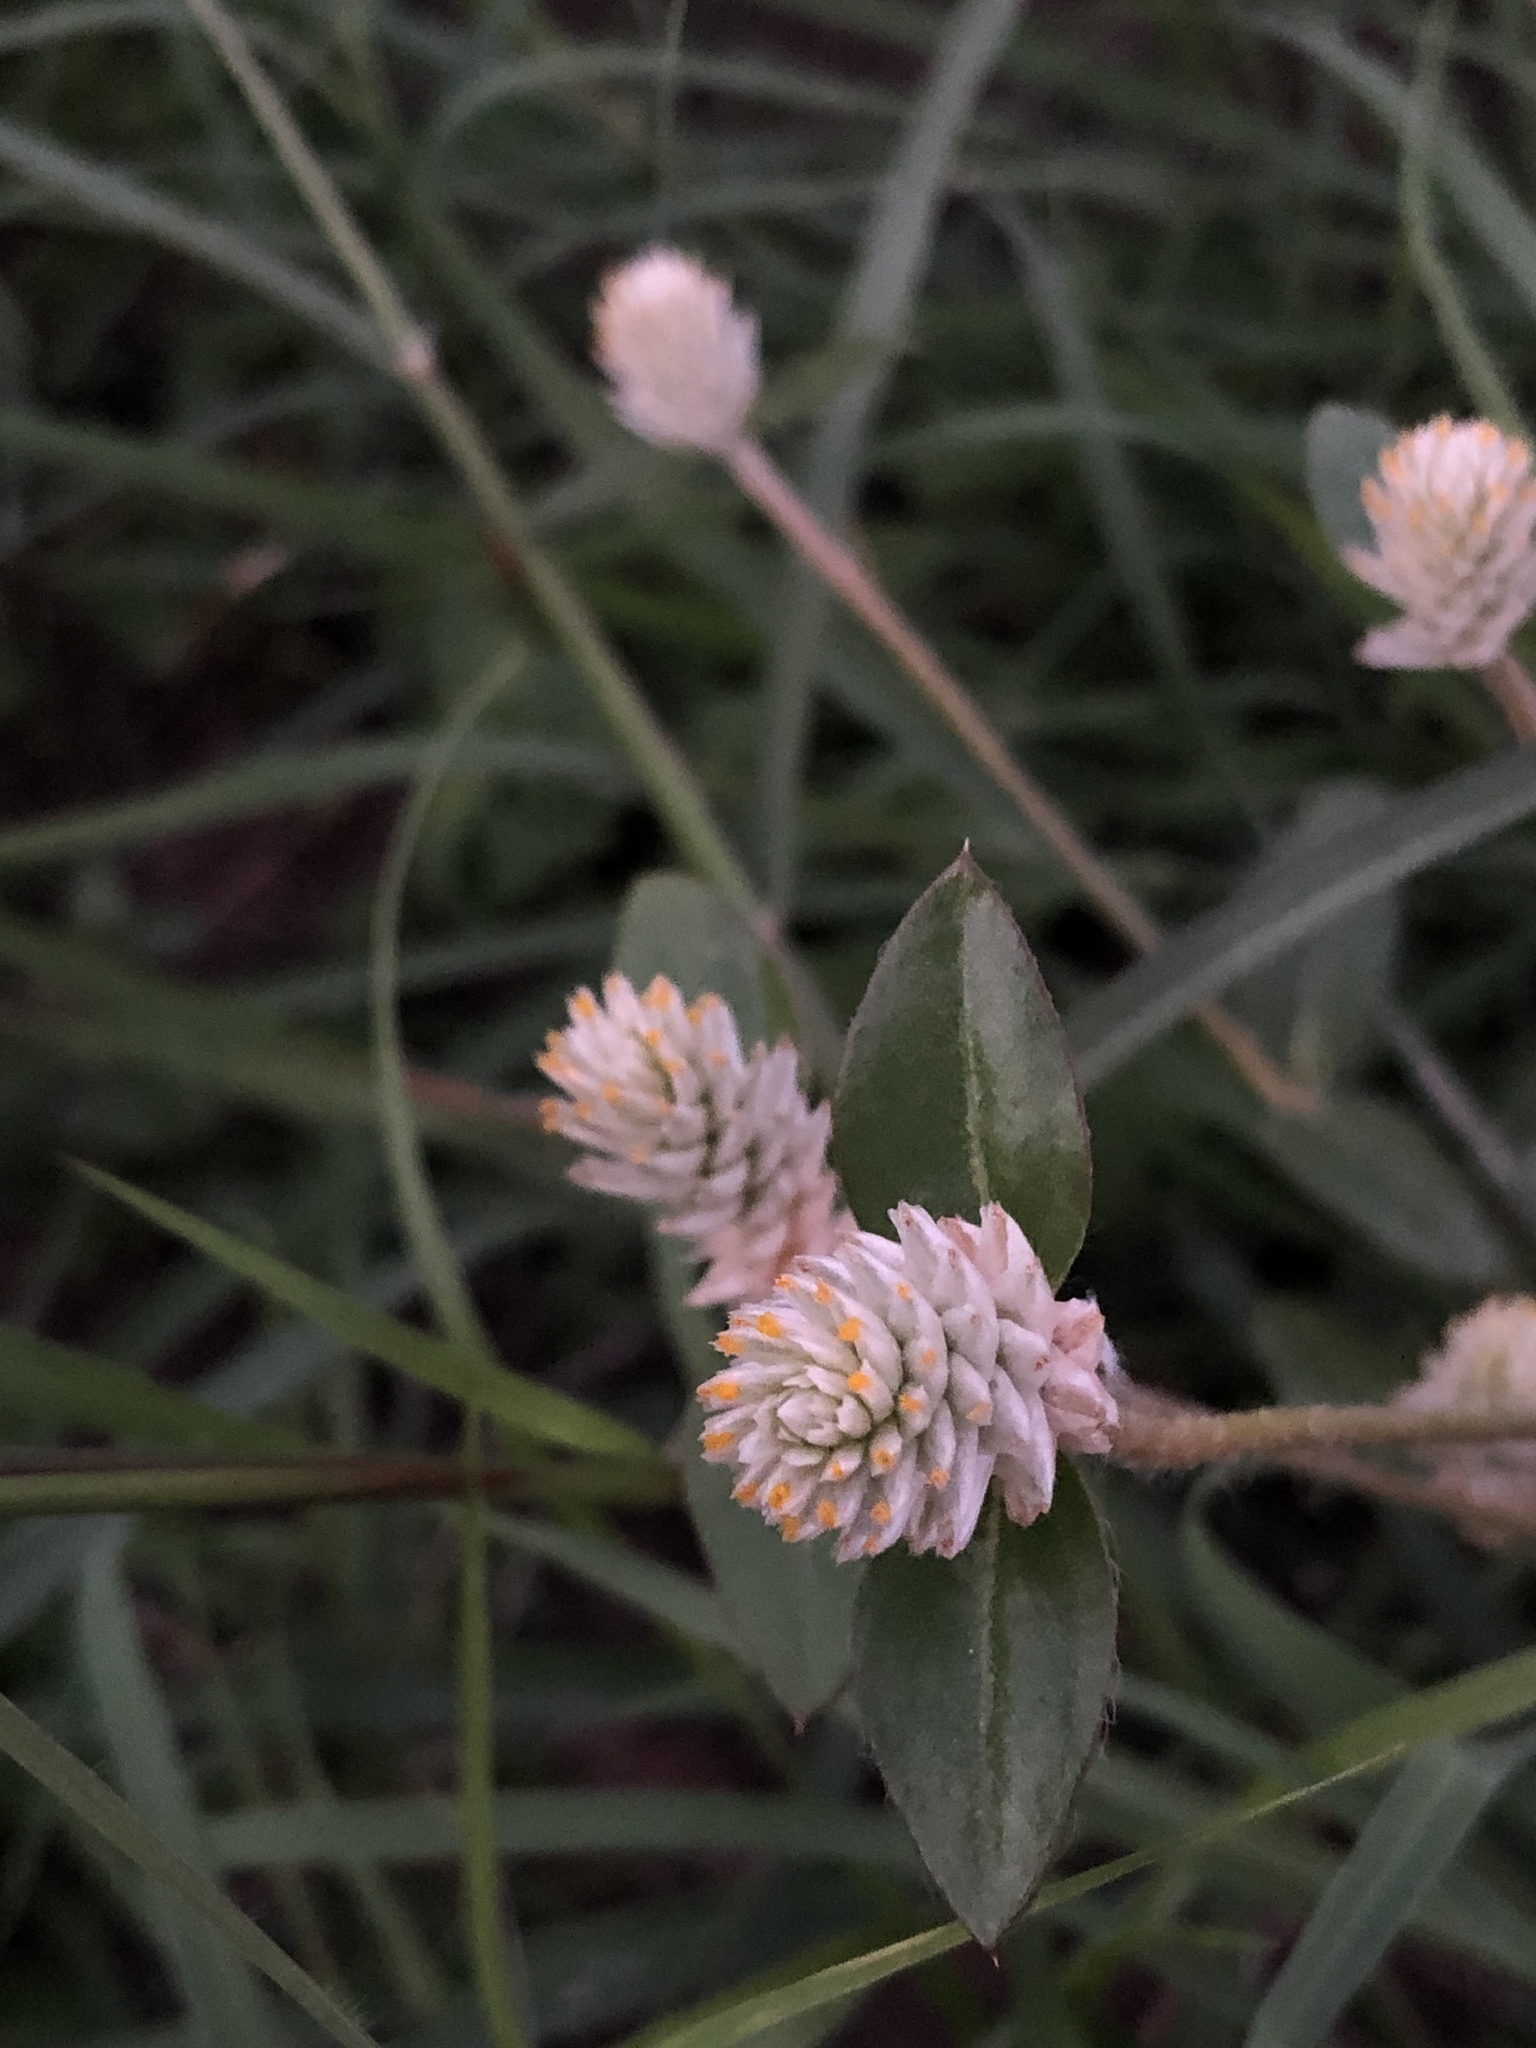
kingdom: Plantae
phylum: Tracheophyta
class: Magnoliopsida
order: Caryophyllales
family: Amaranthaceae
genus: Gomphrena
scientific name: Gomphrena serrata
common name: Arrasa con todo
